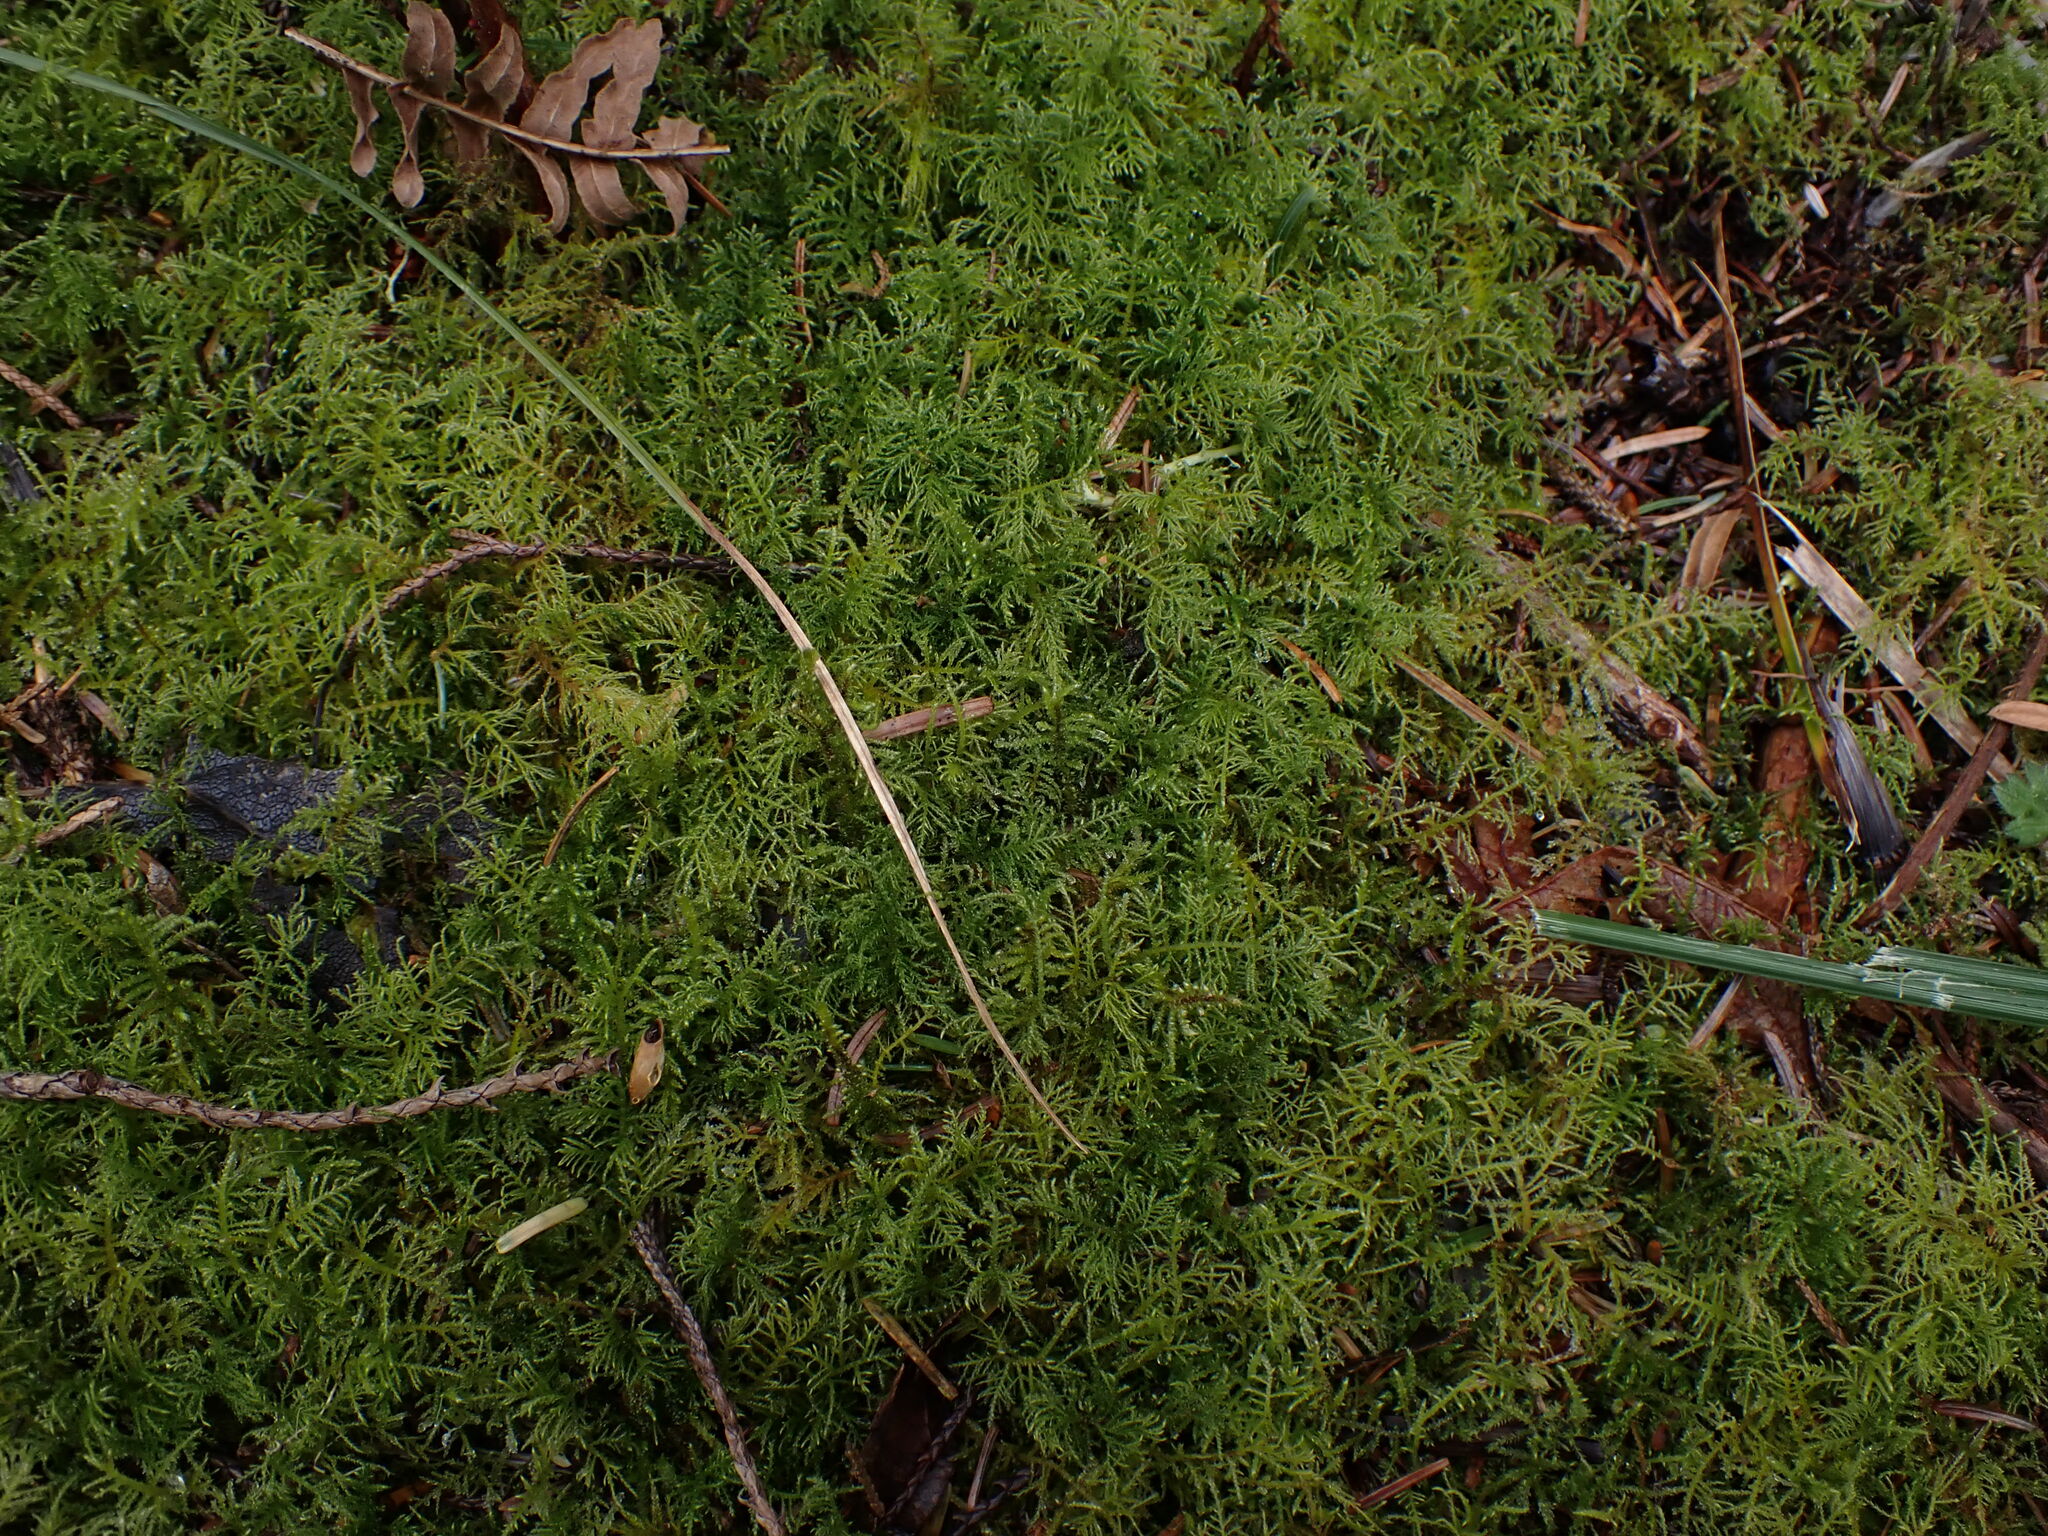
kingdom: Plantae
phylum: Bryophyta
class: Bryopsida
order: Hypnales
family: Brachytheciaceae
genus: Kindbergia
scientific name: Kindbergia praelonga
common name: Slender beaked moss
